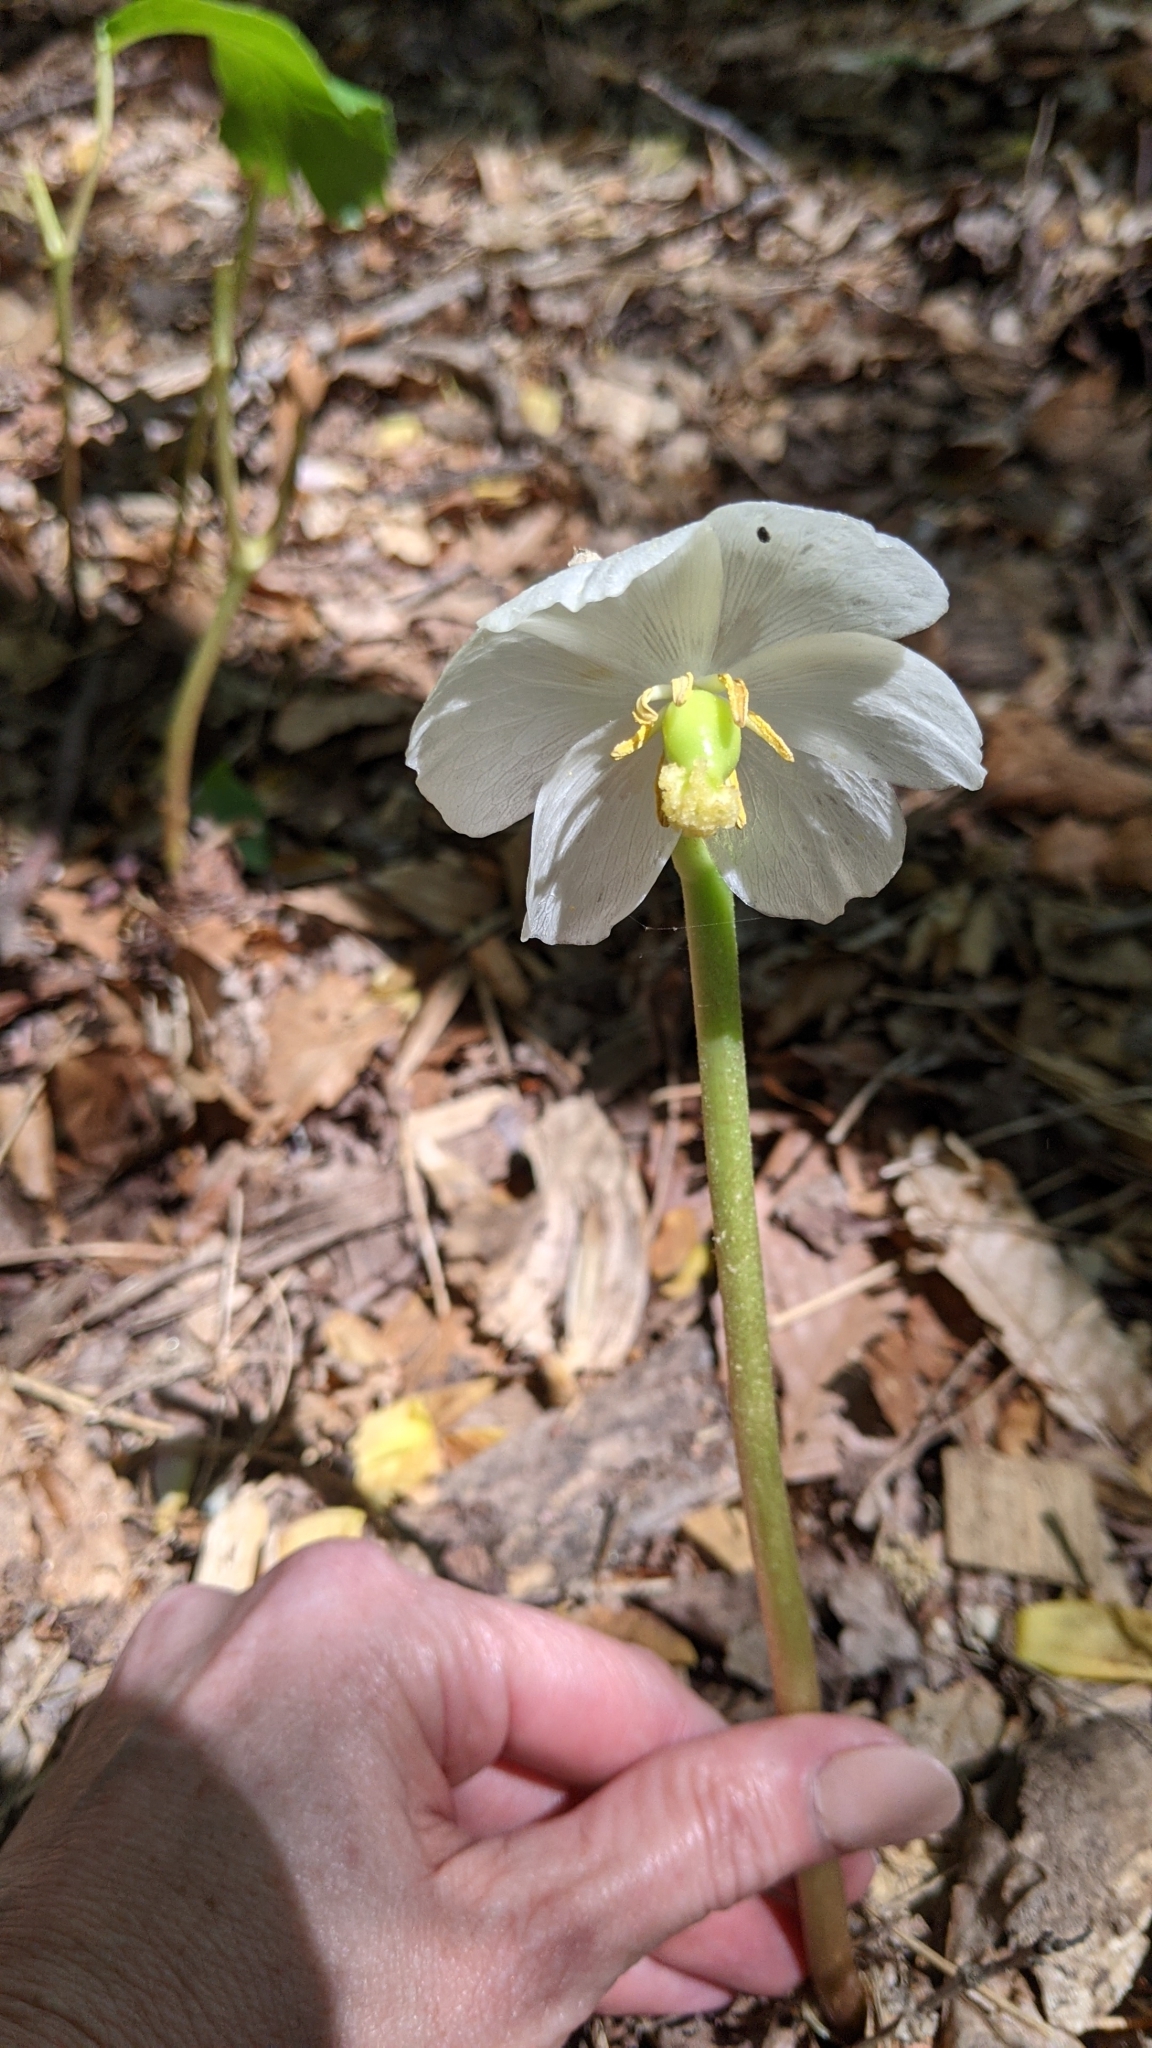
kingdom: Plantae
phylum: Tracheophyta
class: Magnoliopsida
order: Ranunculales
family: Berberidaceae
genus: Podophyllum
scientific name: Podophyllum peltatum
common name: Wild mandrake
